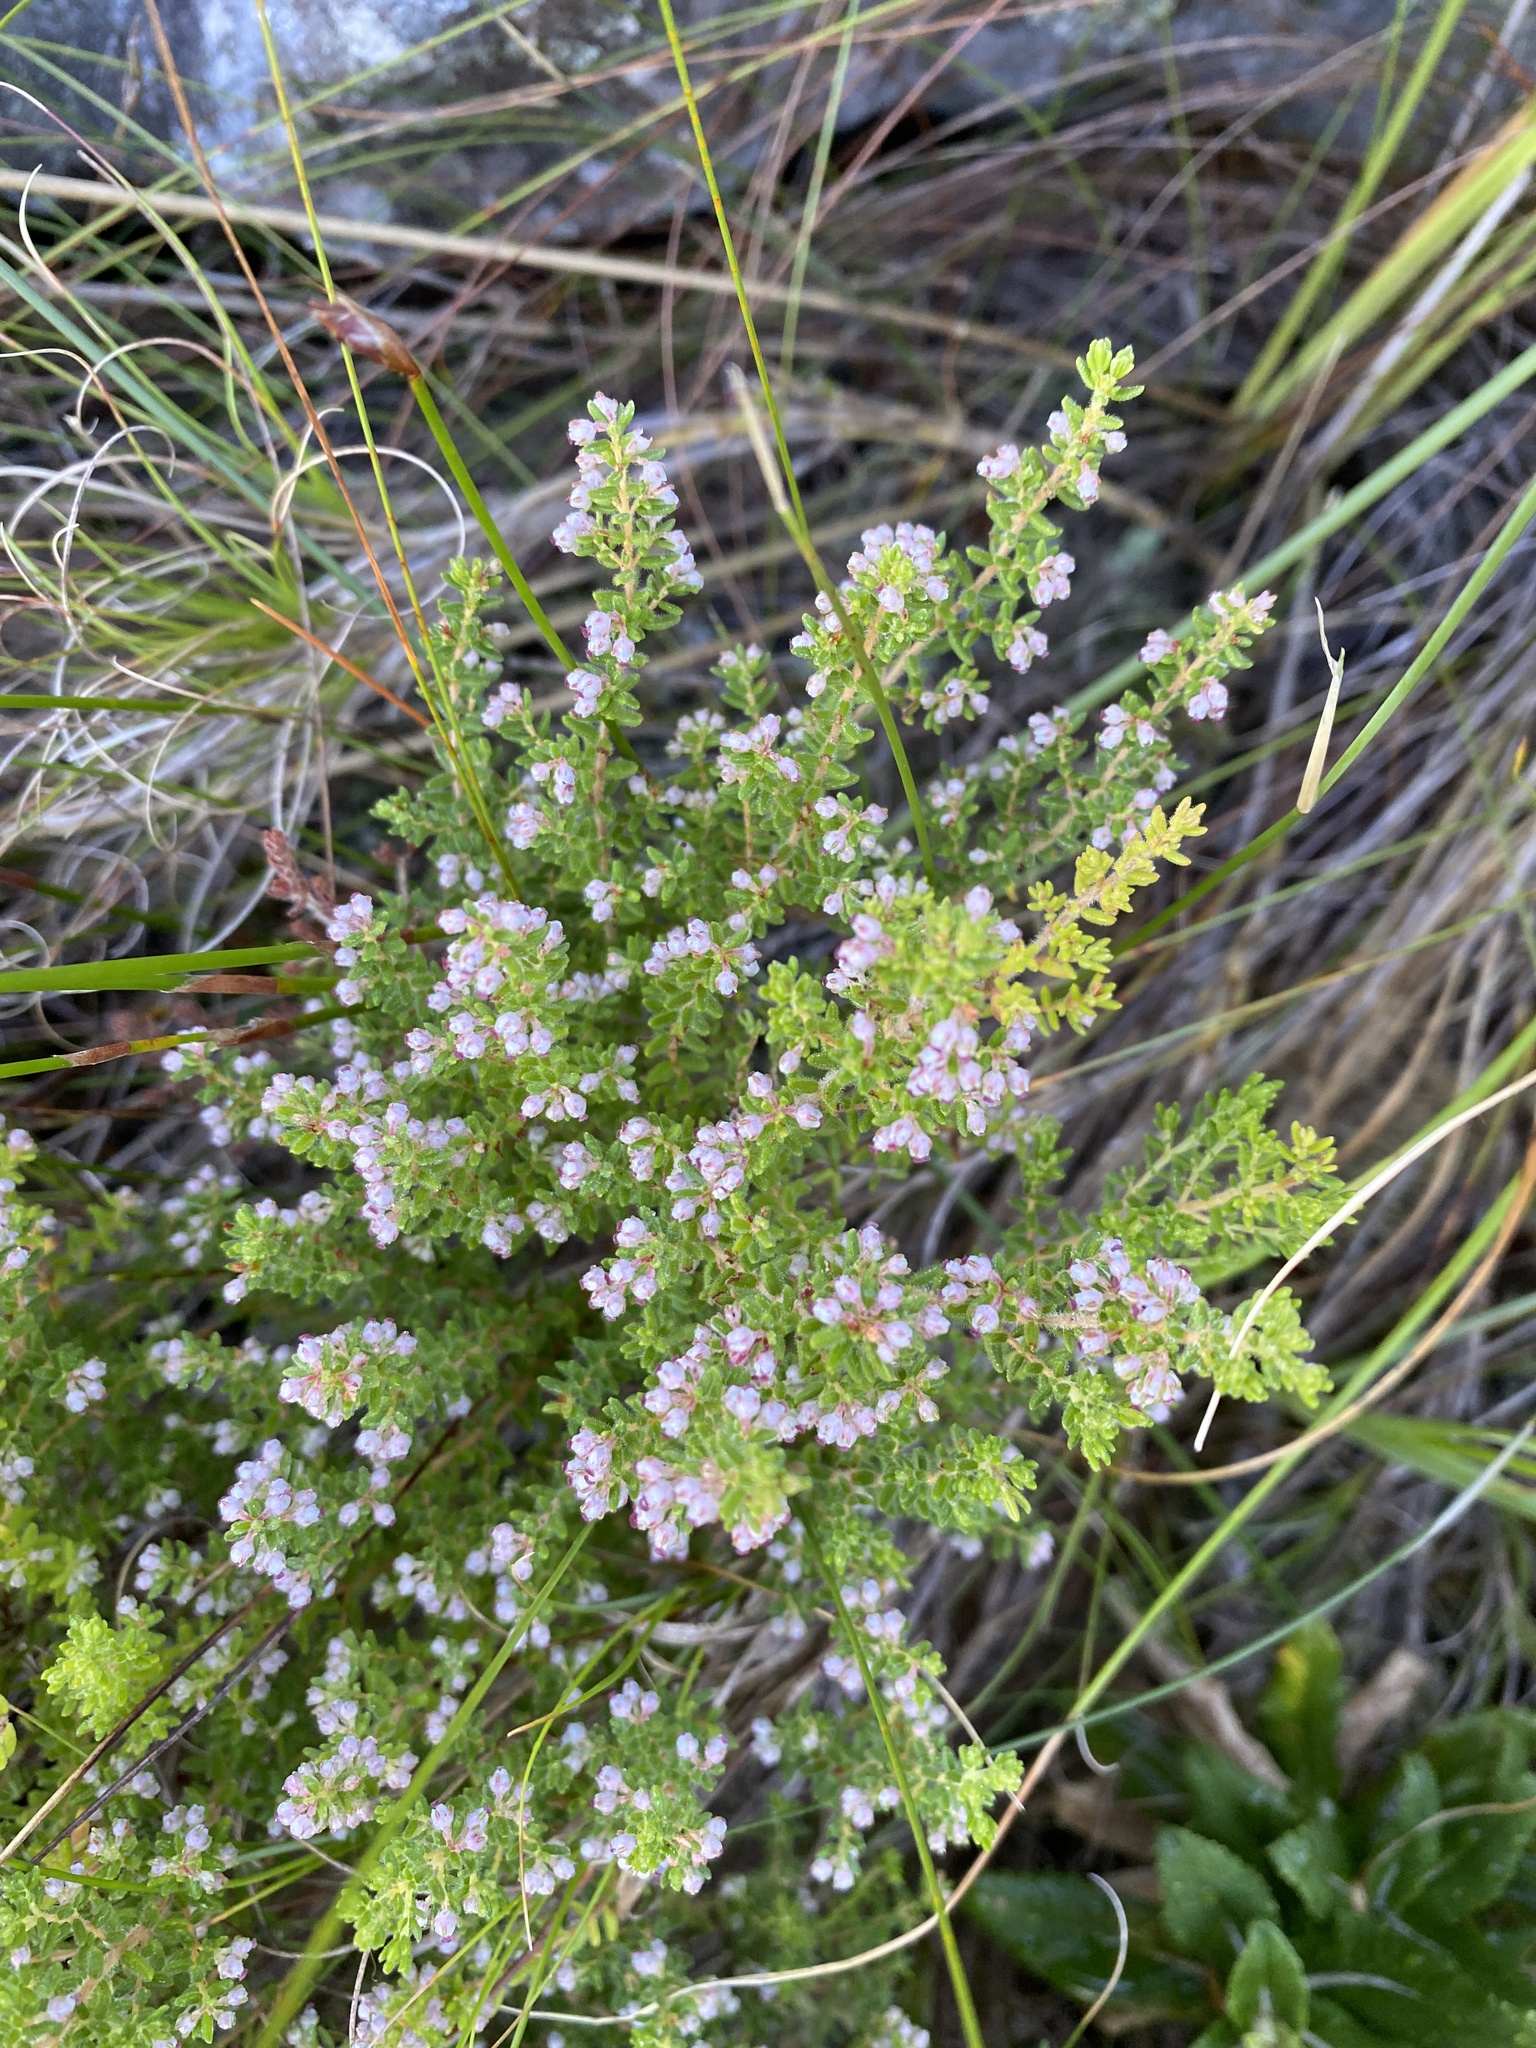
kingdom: Plantae
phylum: Tracheophyta
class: Magnoliopsida
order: Ericales
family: Ericaceae
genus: Erica
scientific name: Erica hispidula
